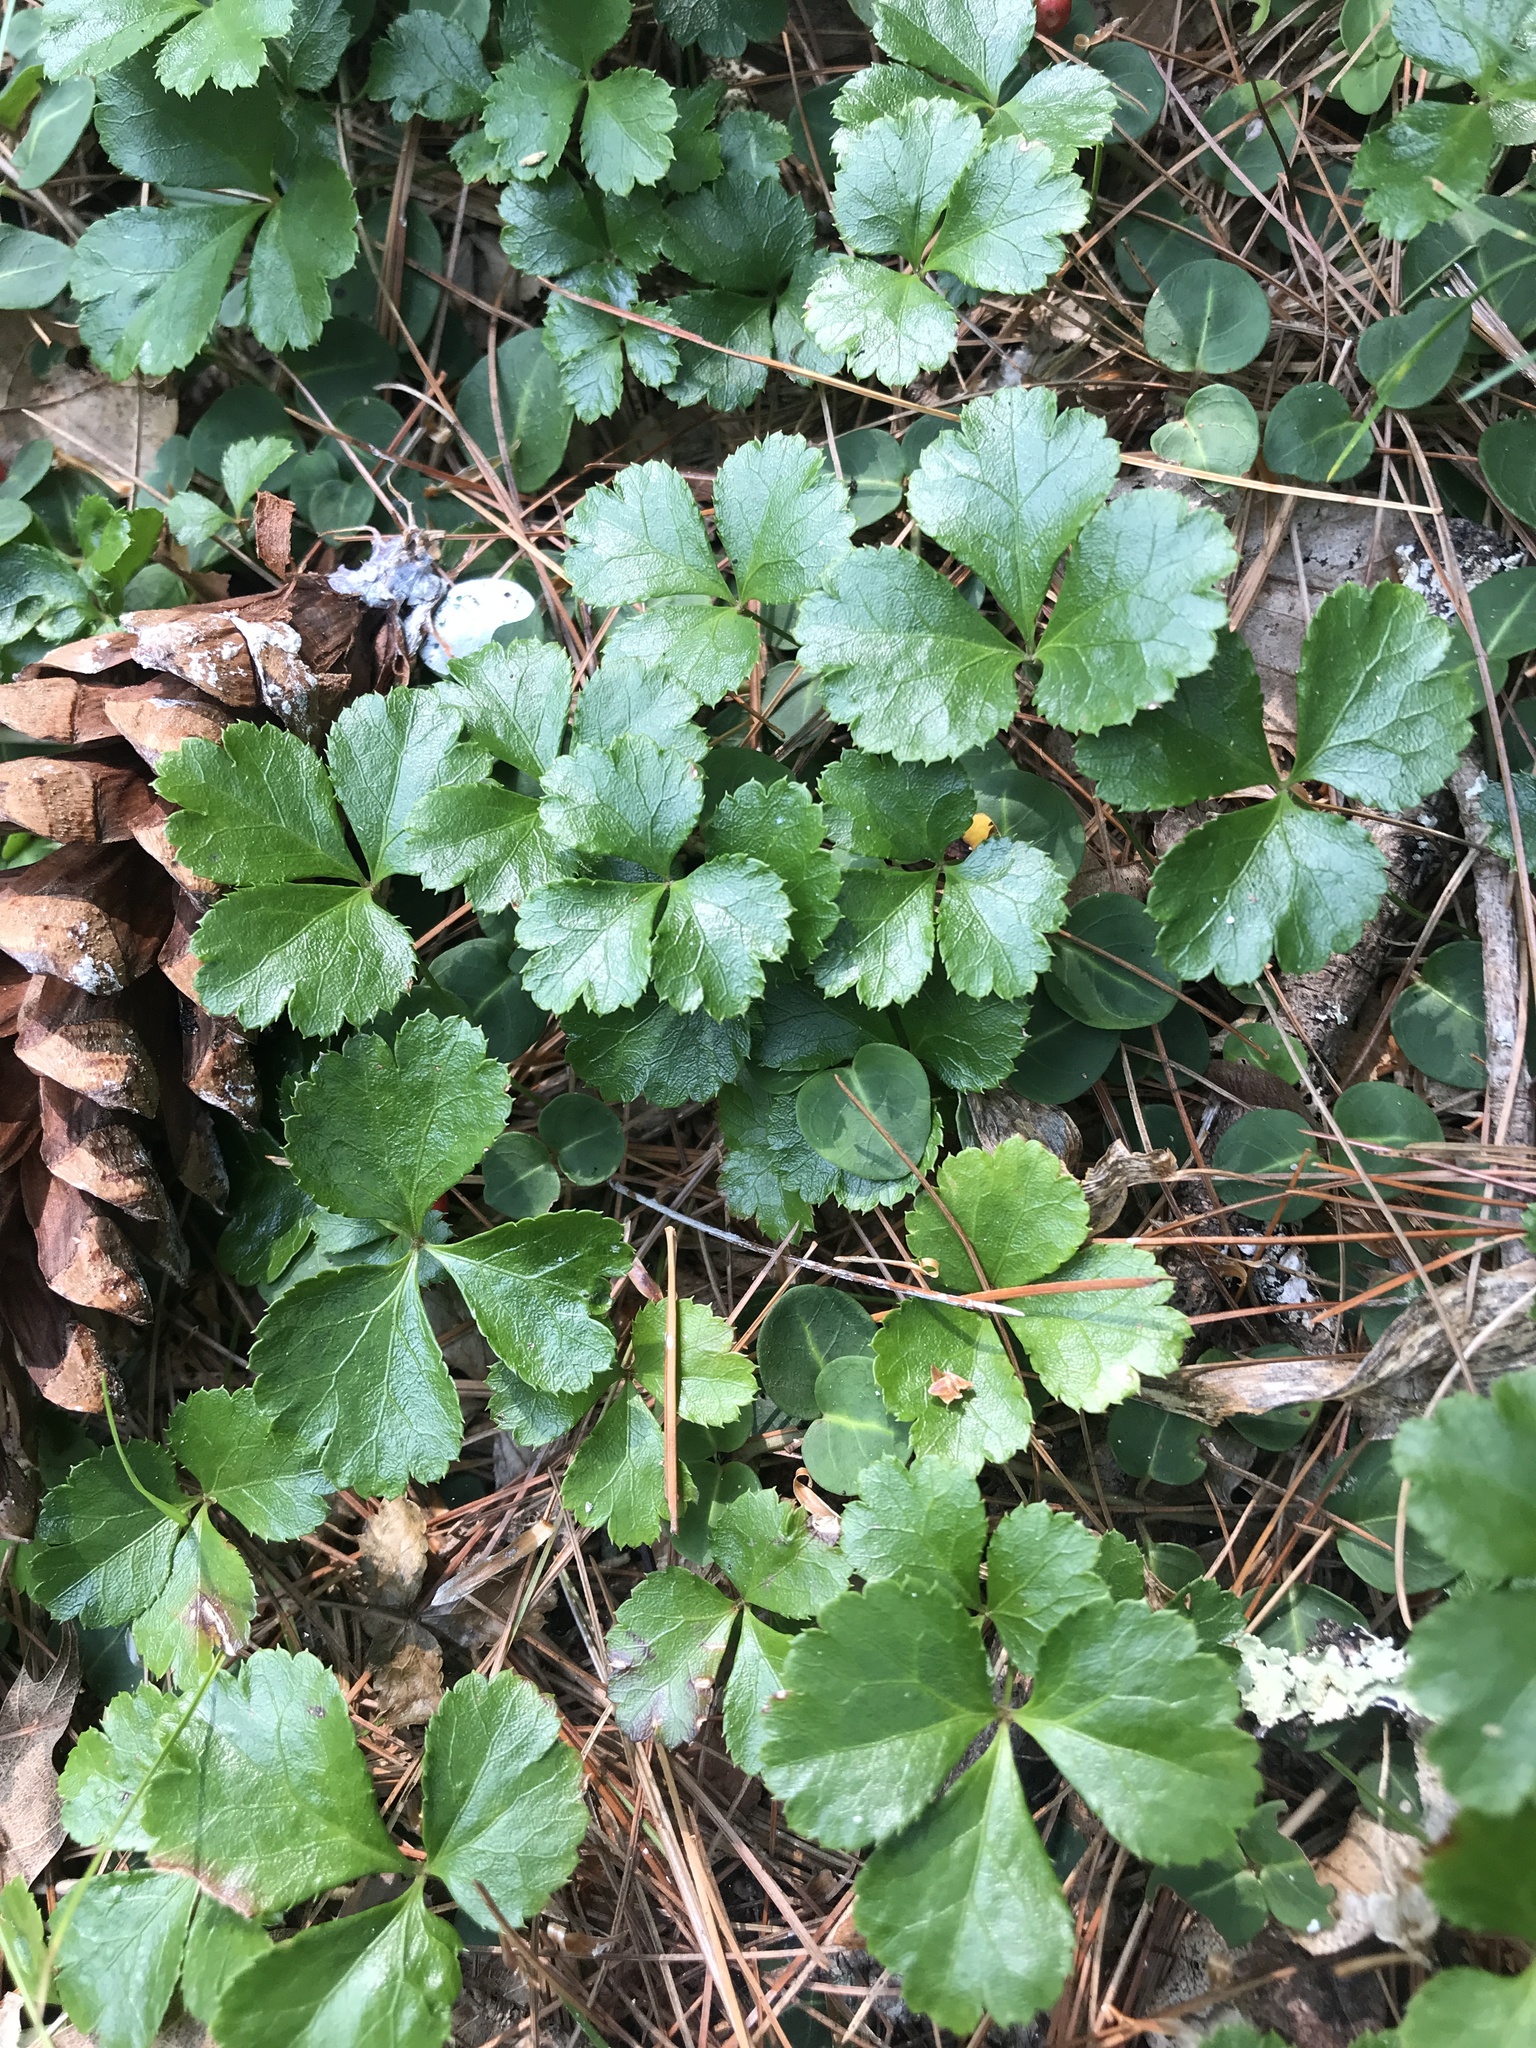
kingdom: Plantae
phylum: Tracheophyta
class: Magnoliopsida
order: Ranunculales
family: Ranunculaceae
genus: Coptis
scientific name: Coptis trifolia
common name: Canker-root
